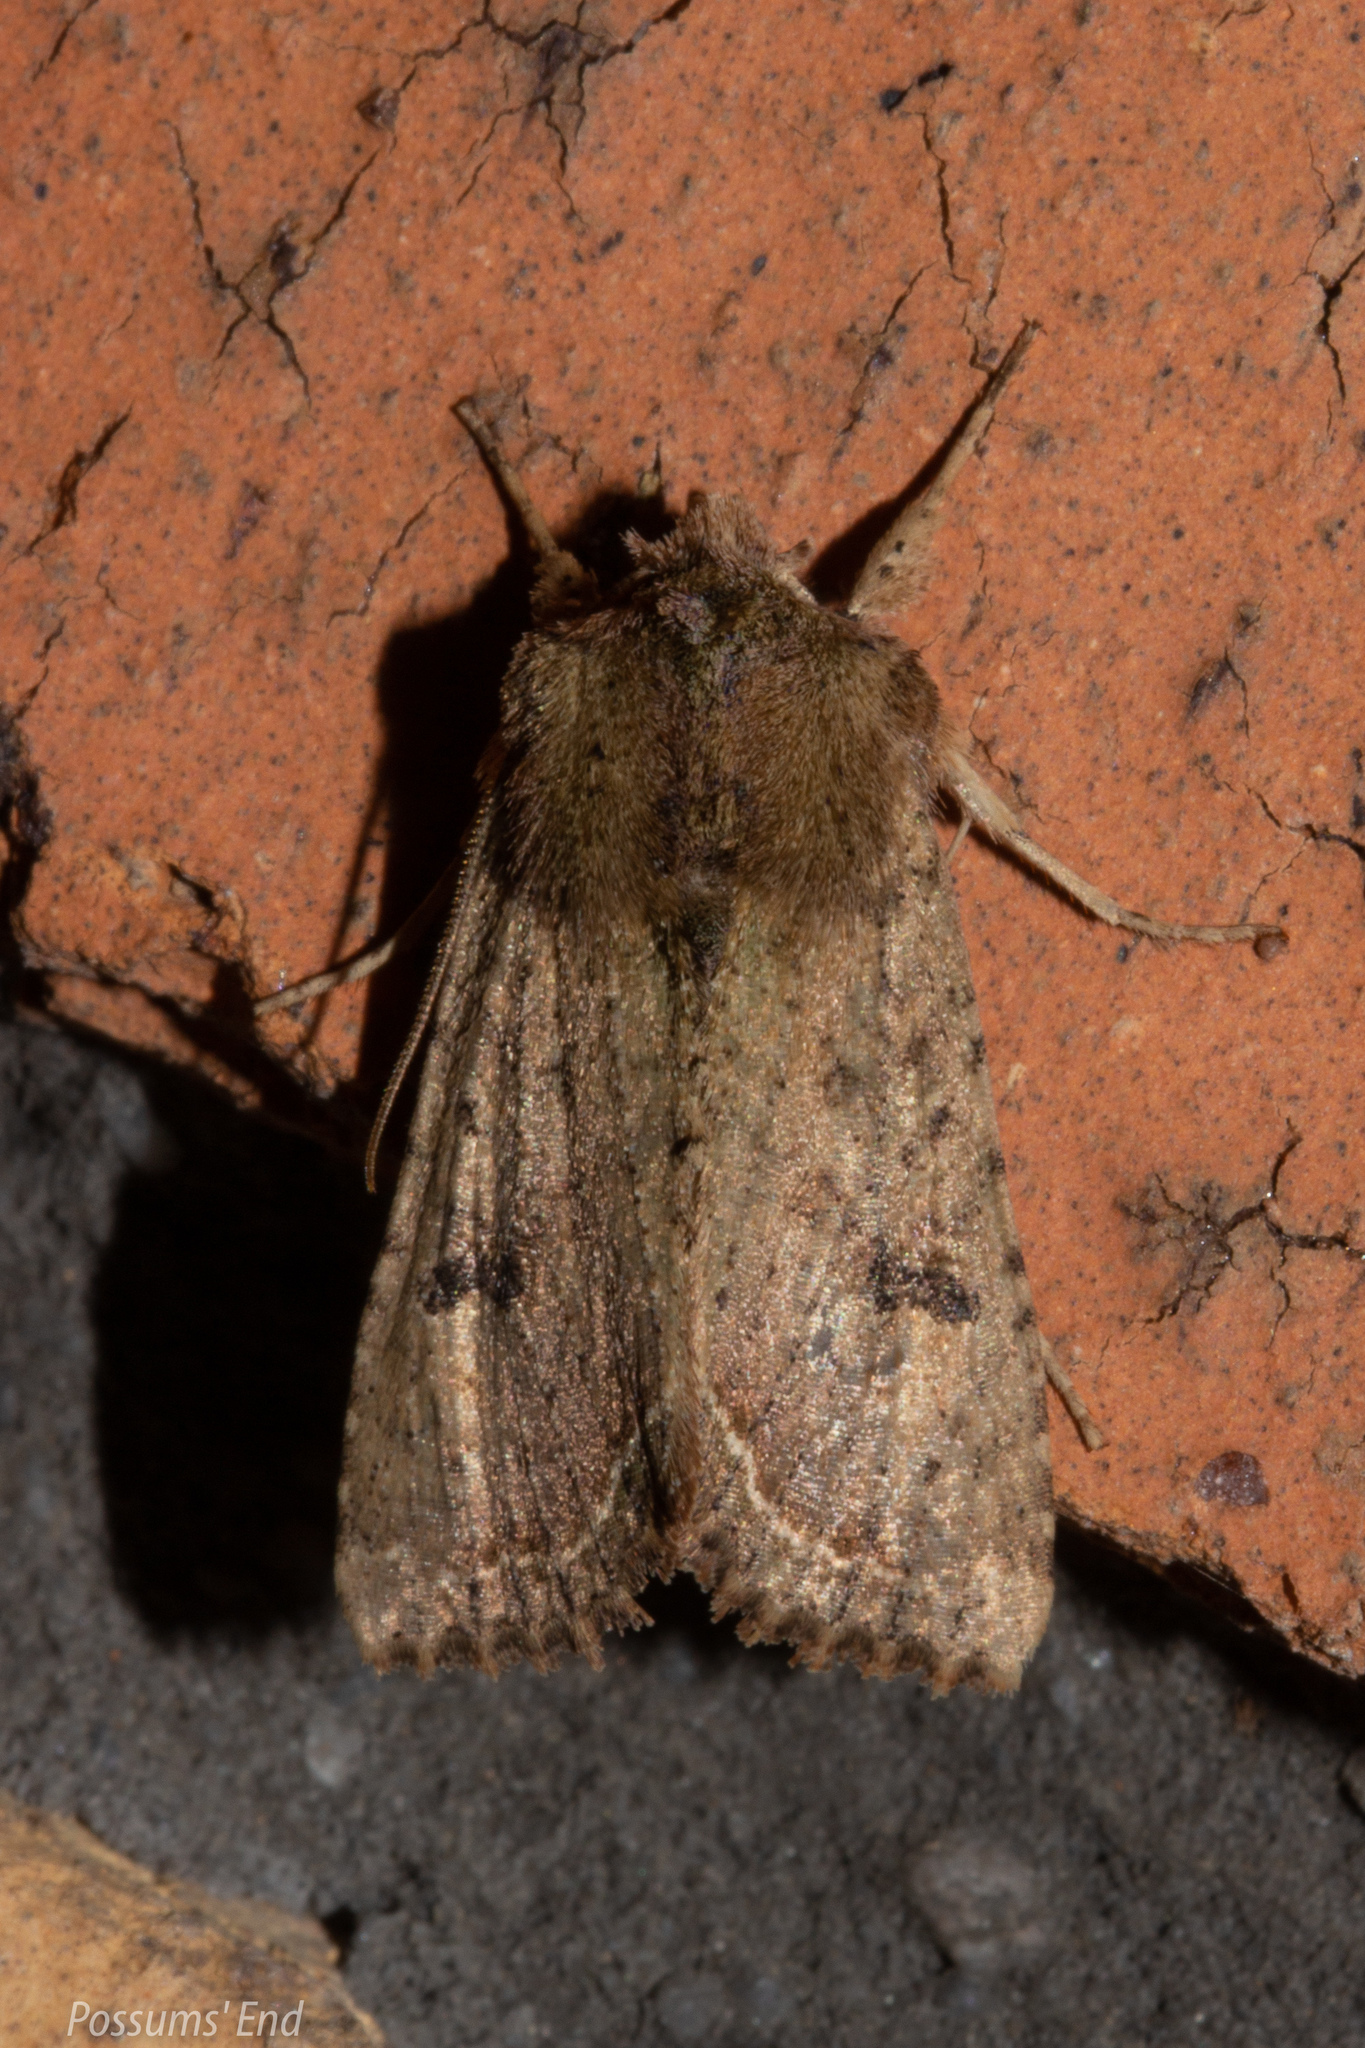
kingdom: Animalia
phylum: Arthropoda
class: Insecta
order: Lepidoptera
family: Noctuidae
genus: Meterana
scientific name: Meterana inchoata
